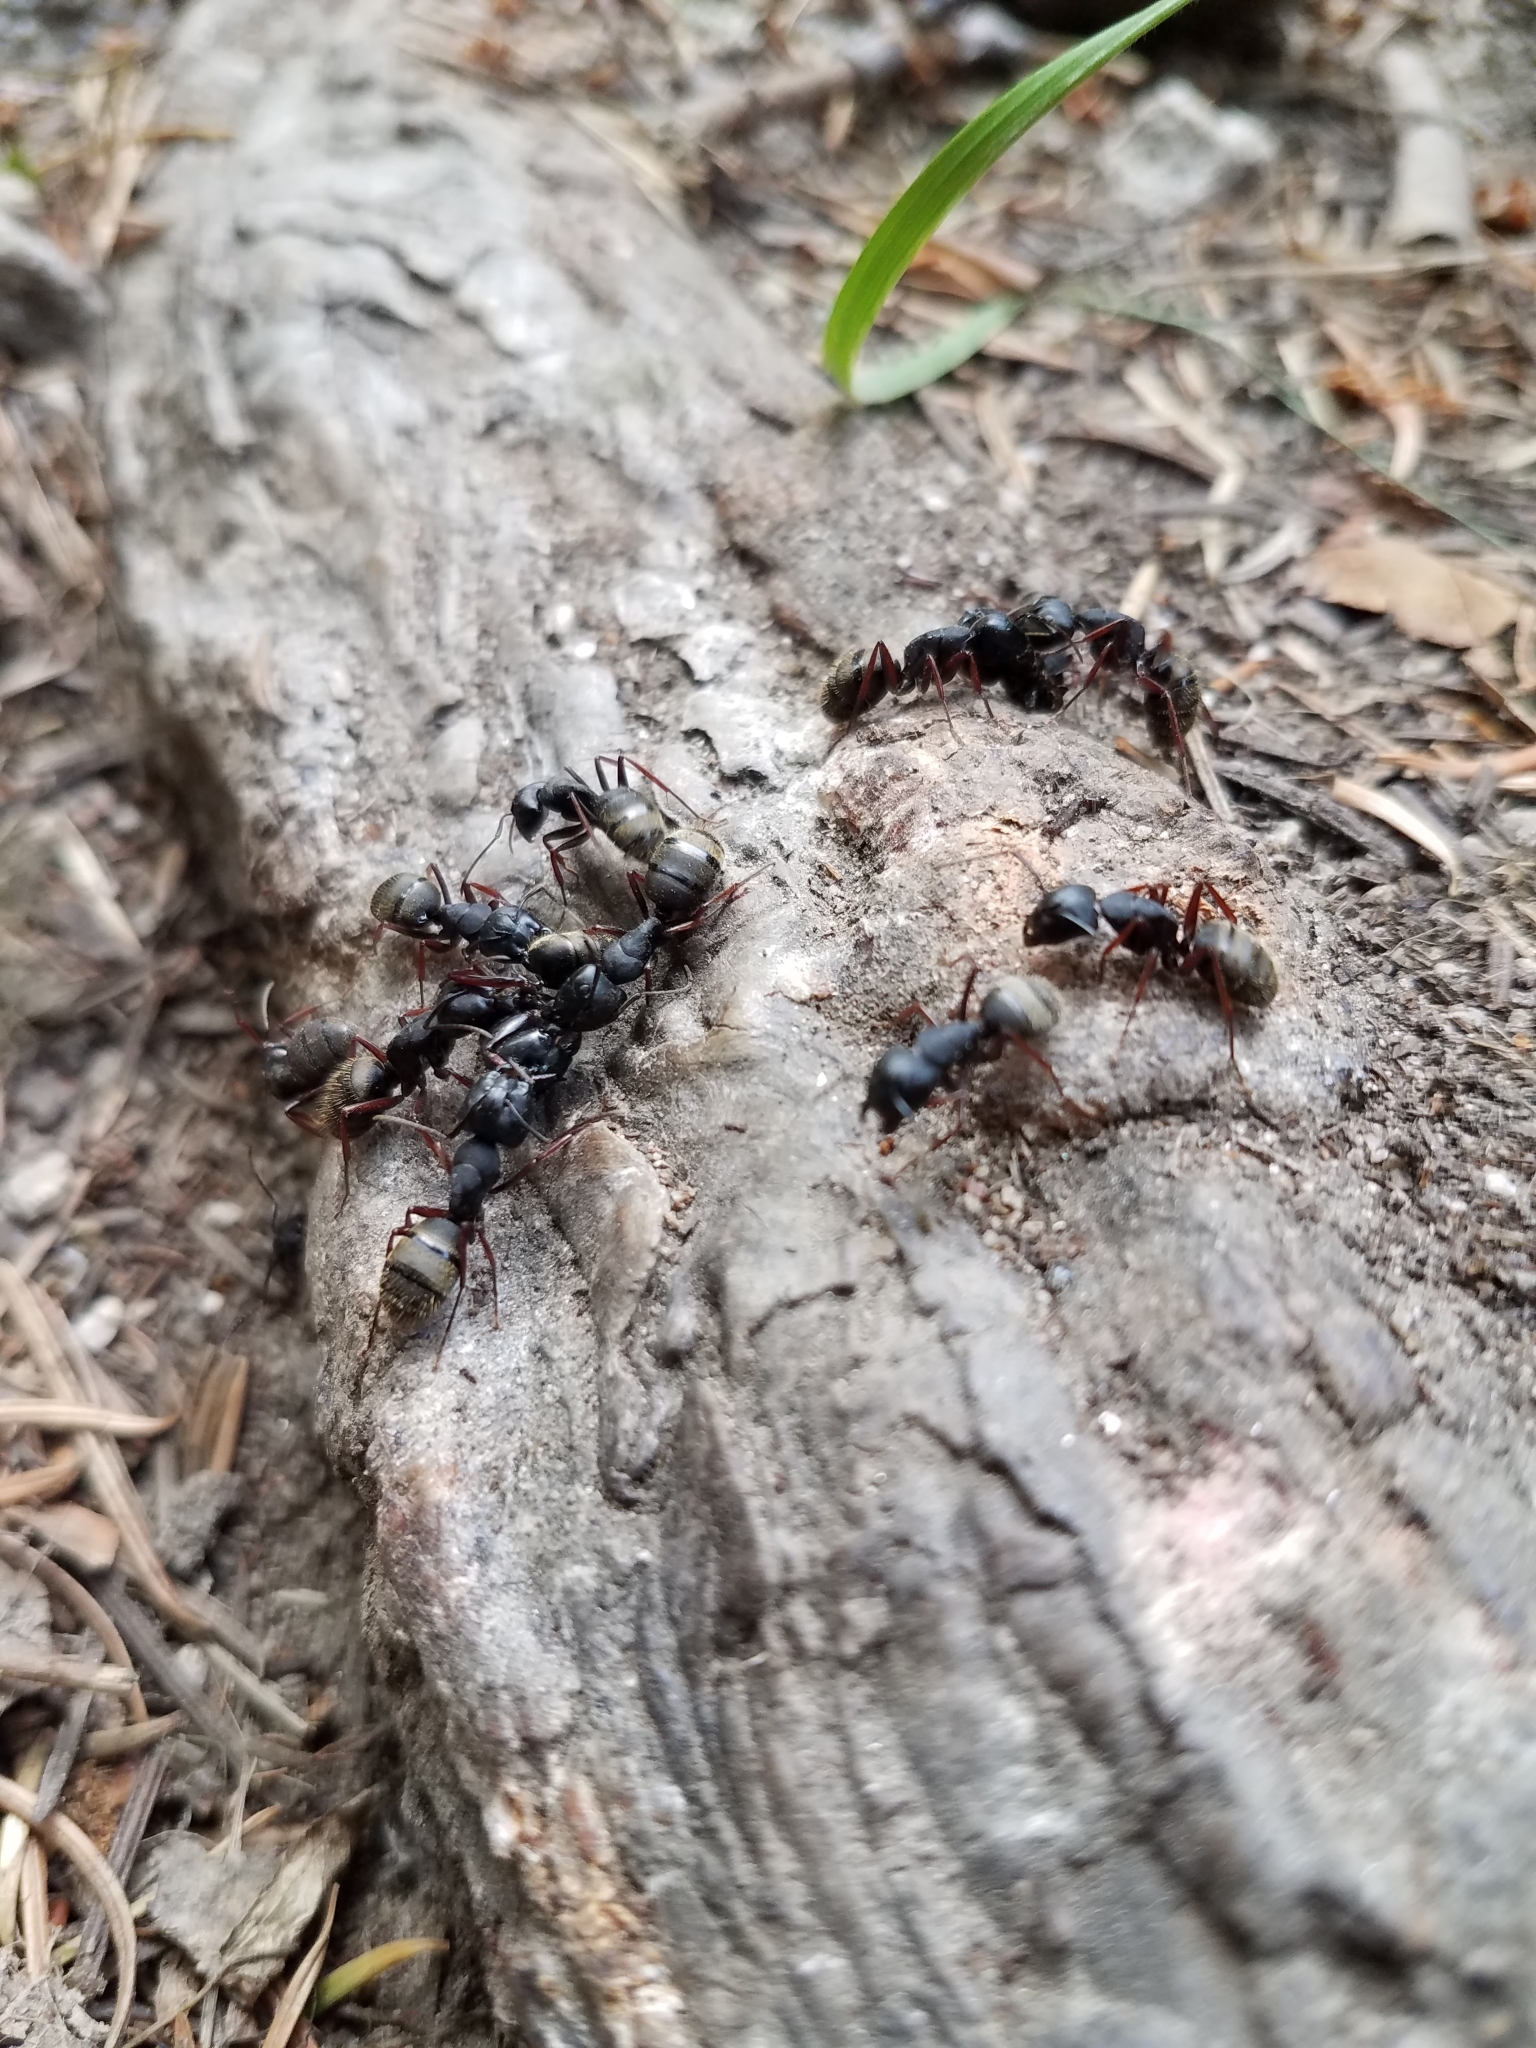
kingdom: Animalia
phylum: Arthropoda
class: Insecta
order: Hymenoptera
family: Formicidae
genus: Camponotus
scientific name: Camponotus modoc
